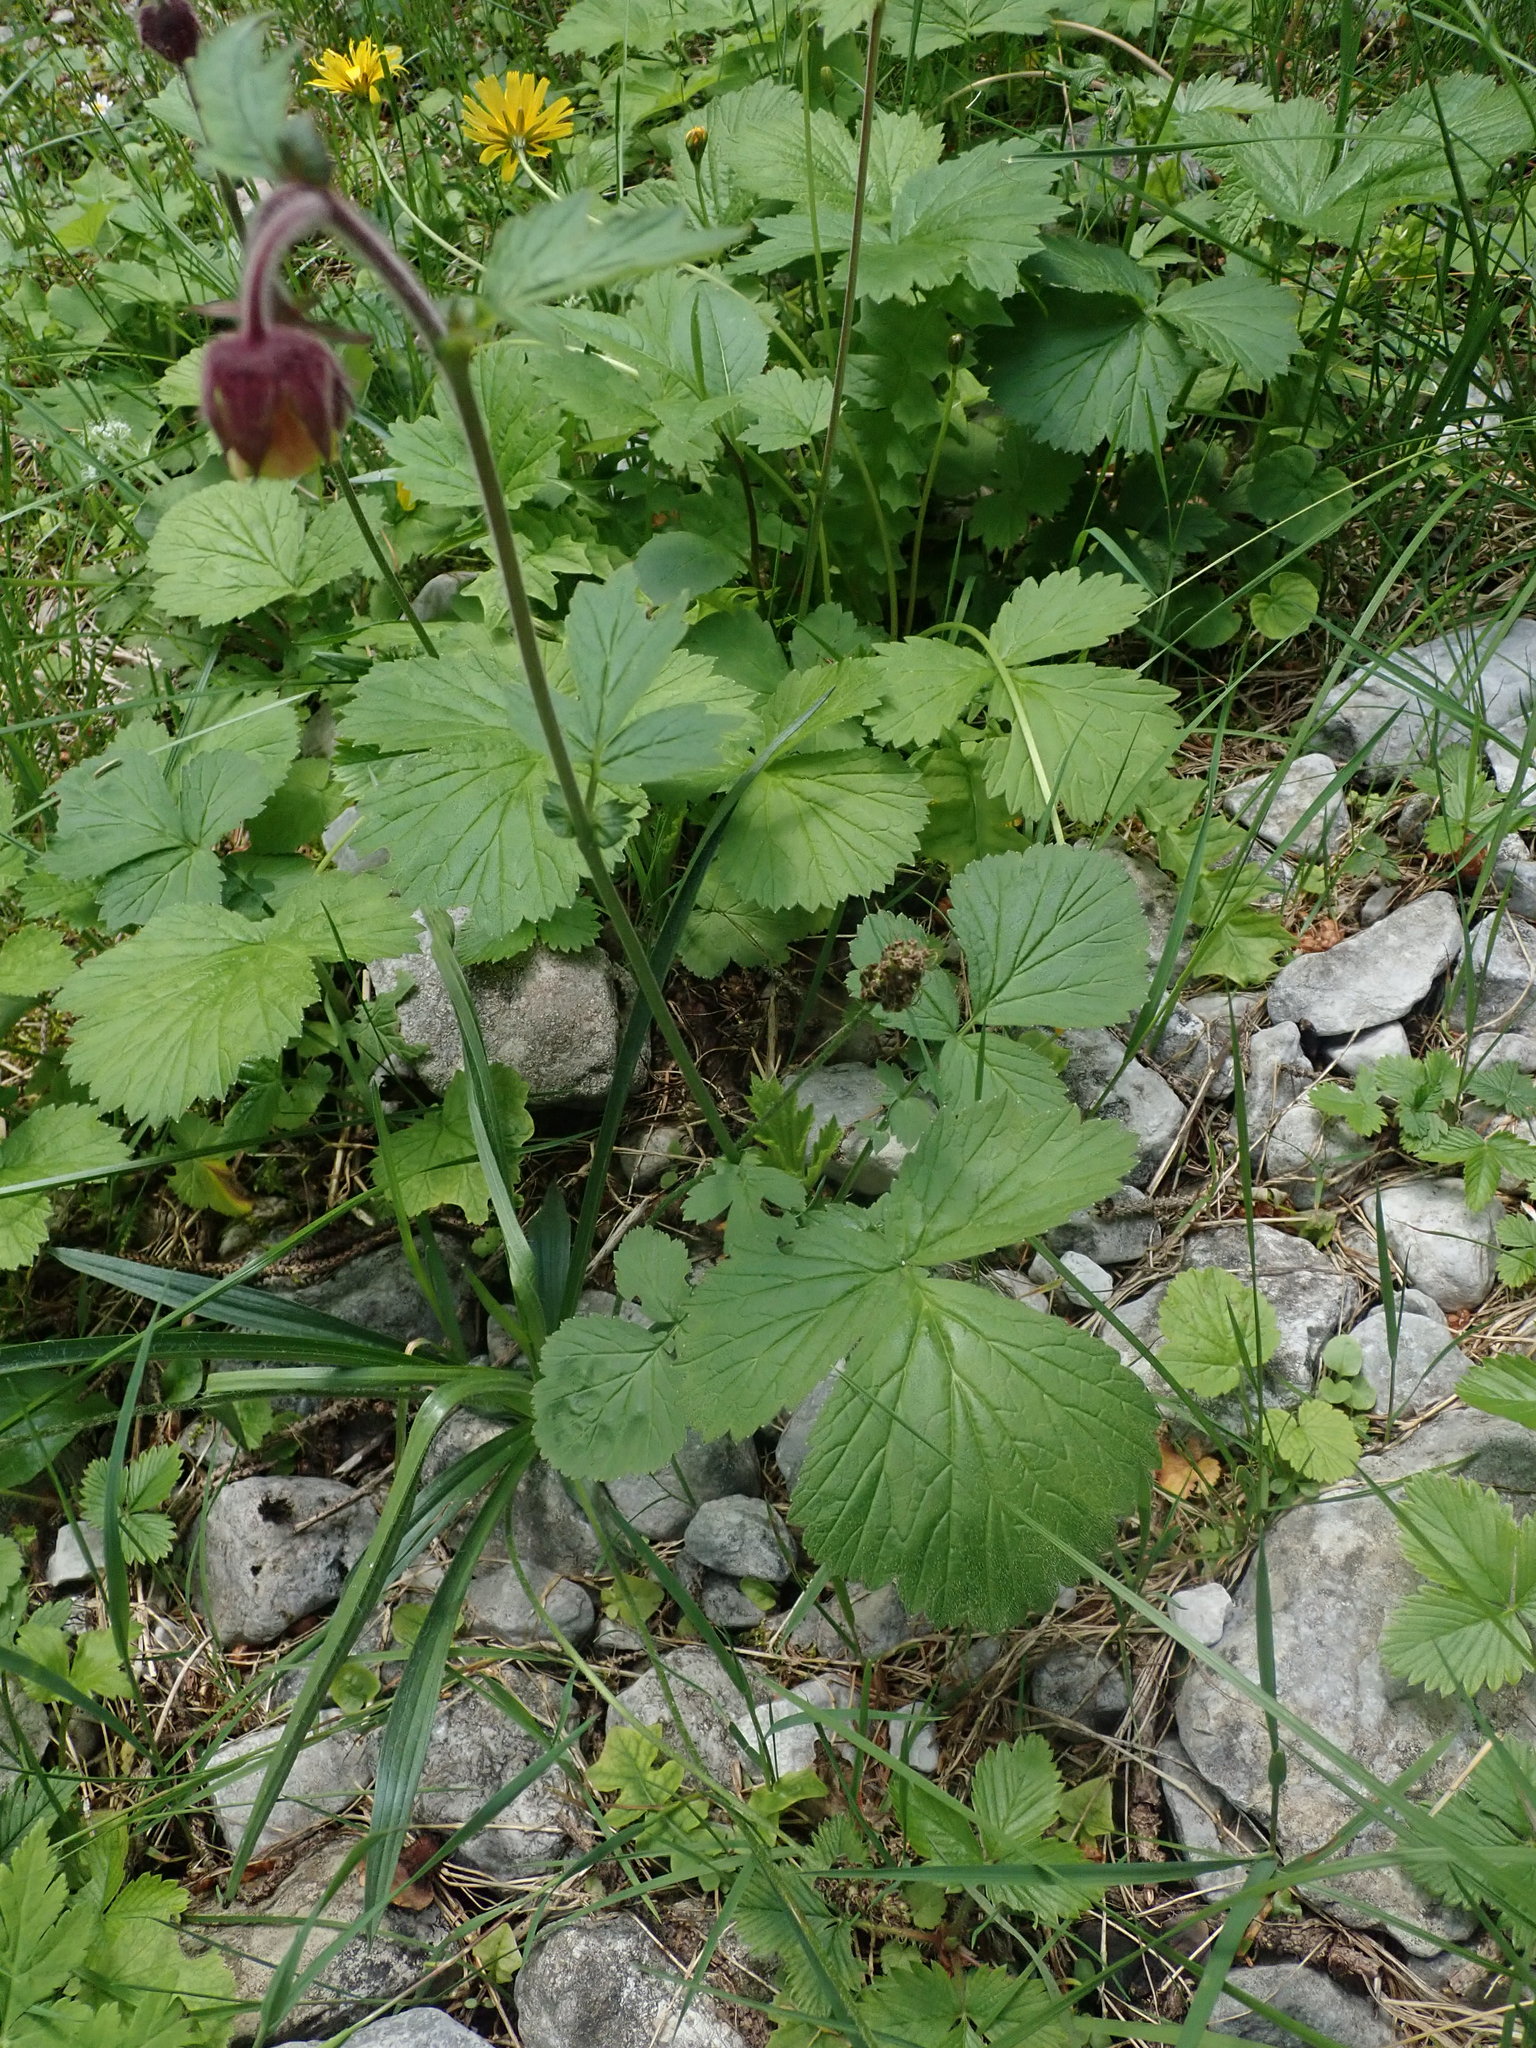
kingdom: Plantae
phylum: Tracheophyta
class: Magnoliopsida
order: Rosales
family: Rosaceae
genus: Geum
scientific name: Geum rivale
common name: Water avens
